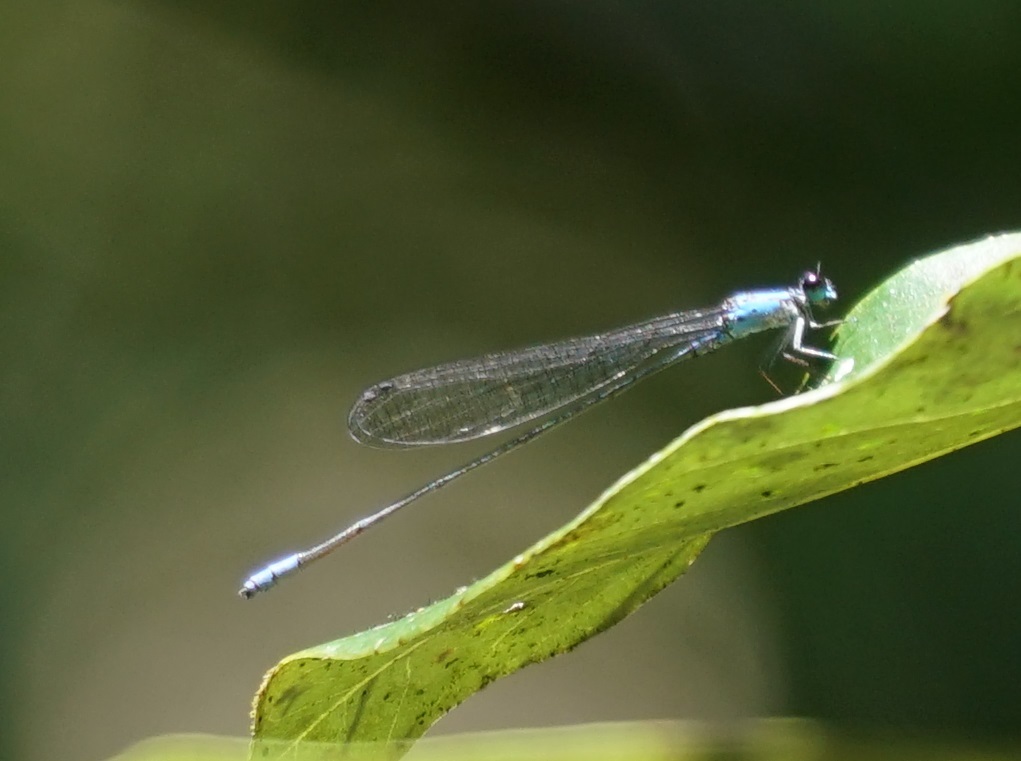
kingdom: Animalia
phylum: Arthropoda
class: Insecta
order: Odonata
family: Coenagrionidae
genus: Archibasis
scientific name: Archibasis mimetes
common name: Blue-banded longtail
